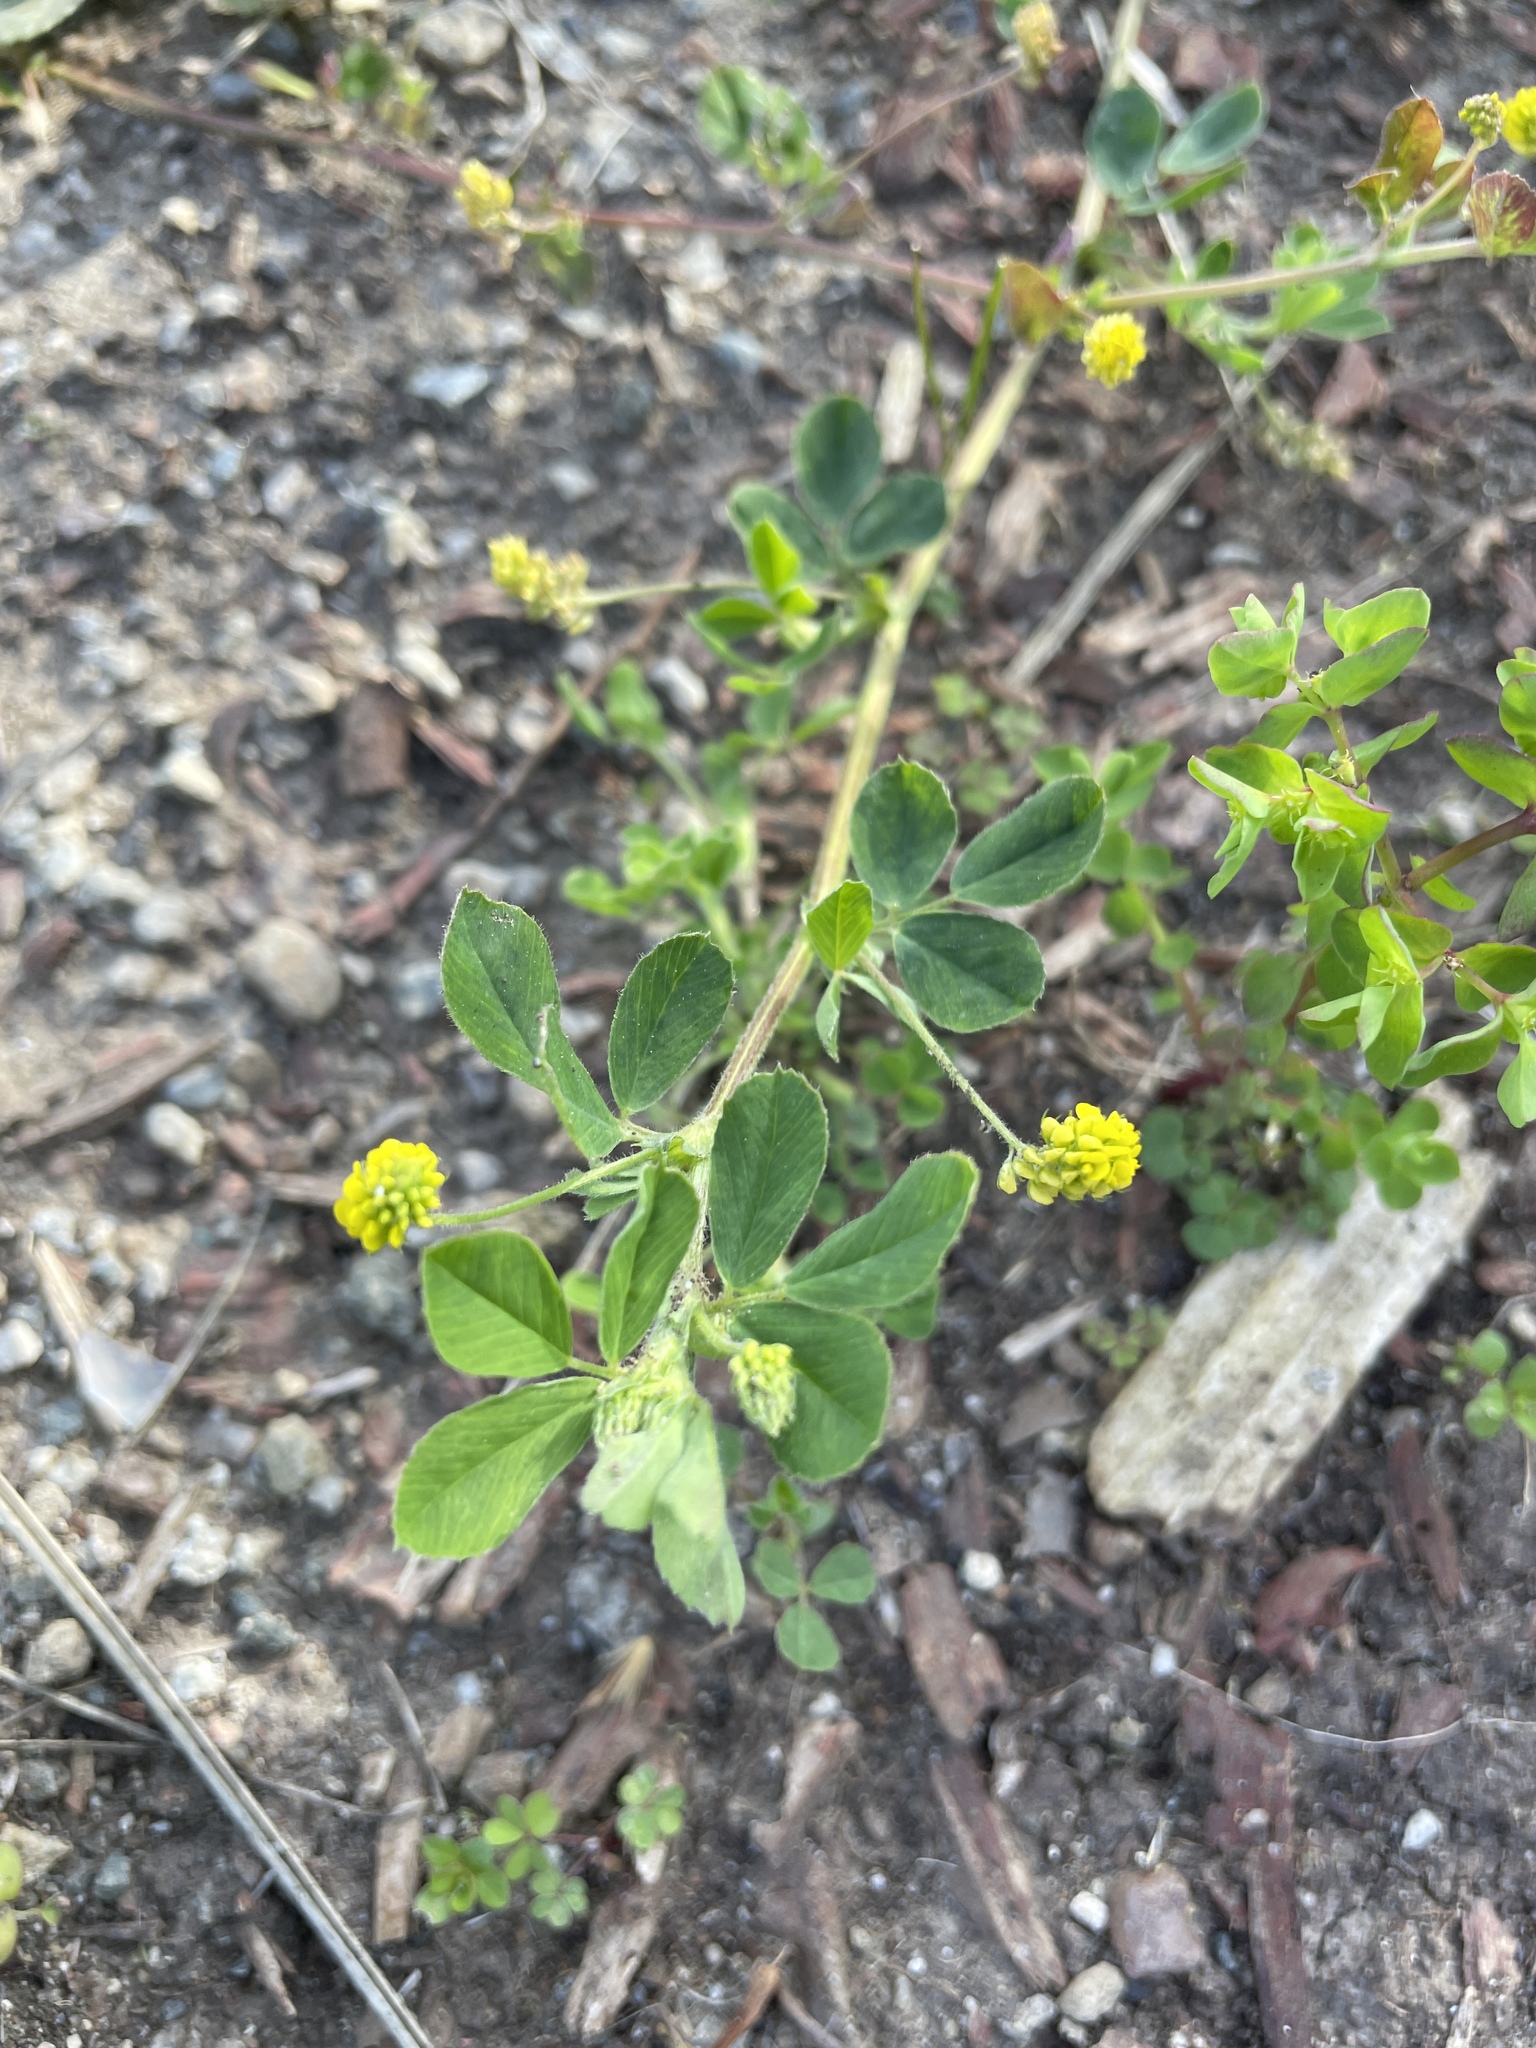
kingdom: Plantae
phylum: Tracheophyta
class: Magnoliopsida
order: Fabales
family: Fabaceae
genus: Medicago
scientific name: Medicago lupulina
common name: Black medick
